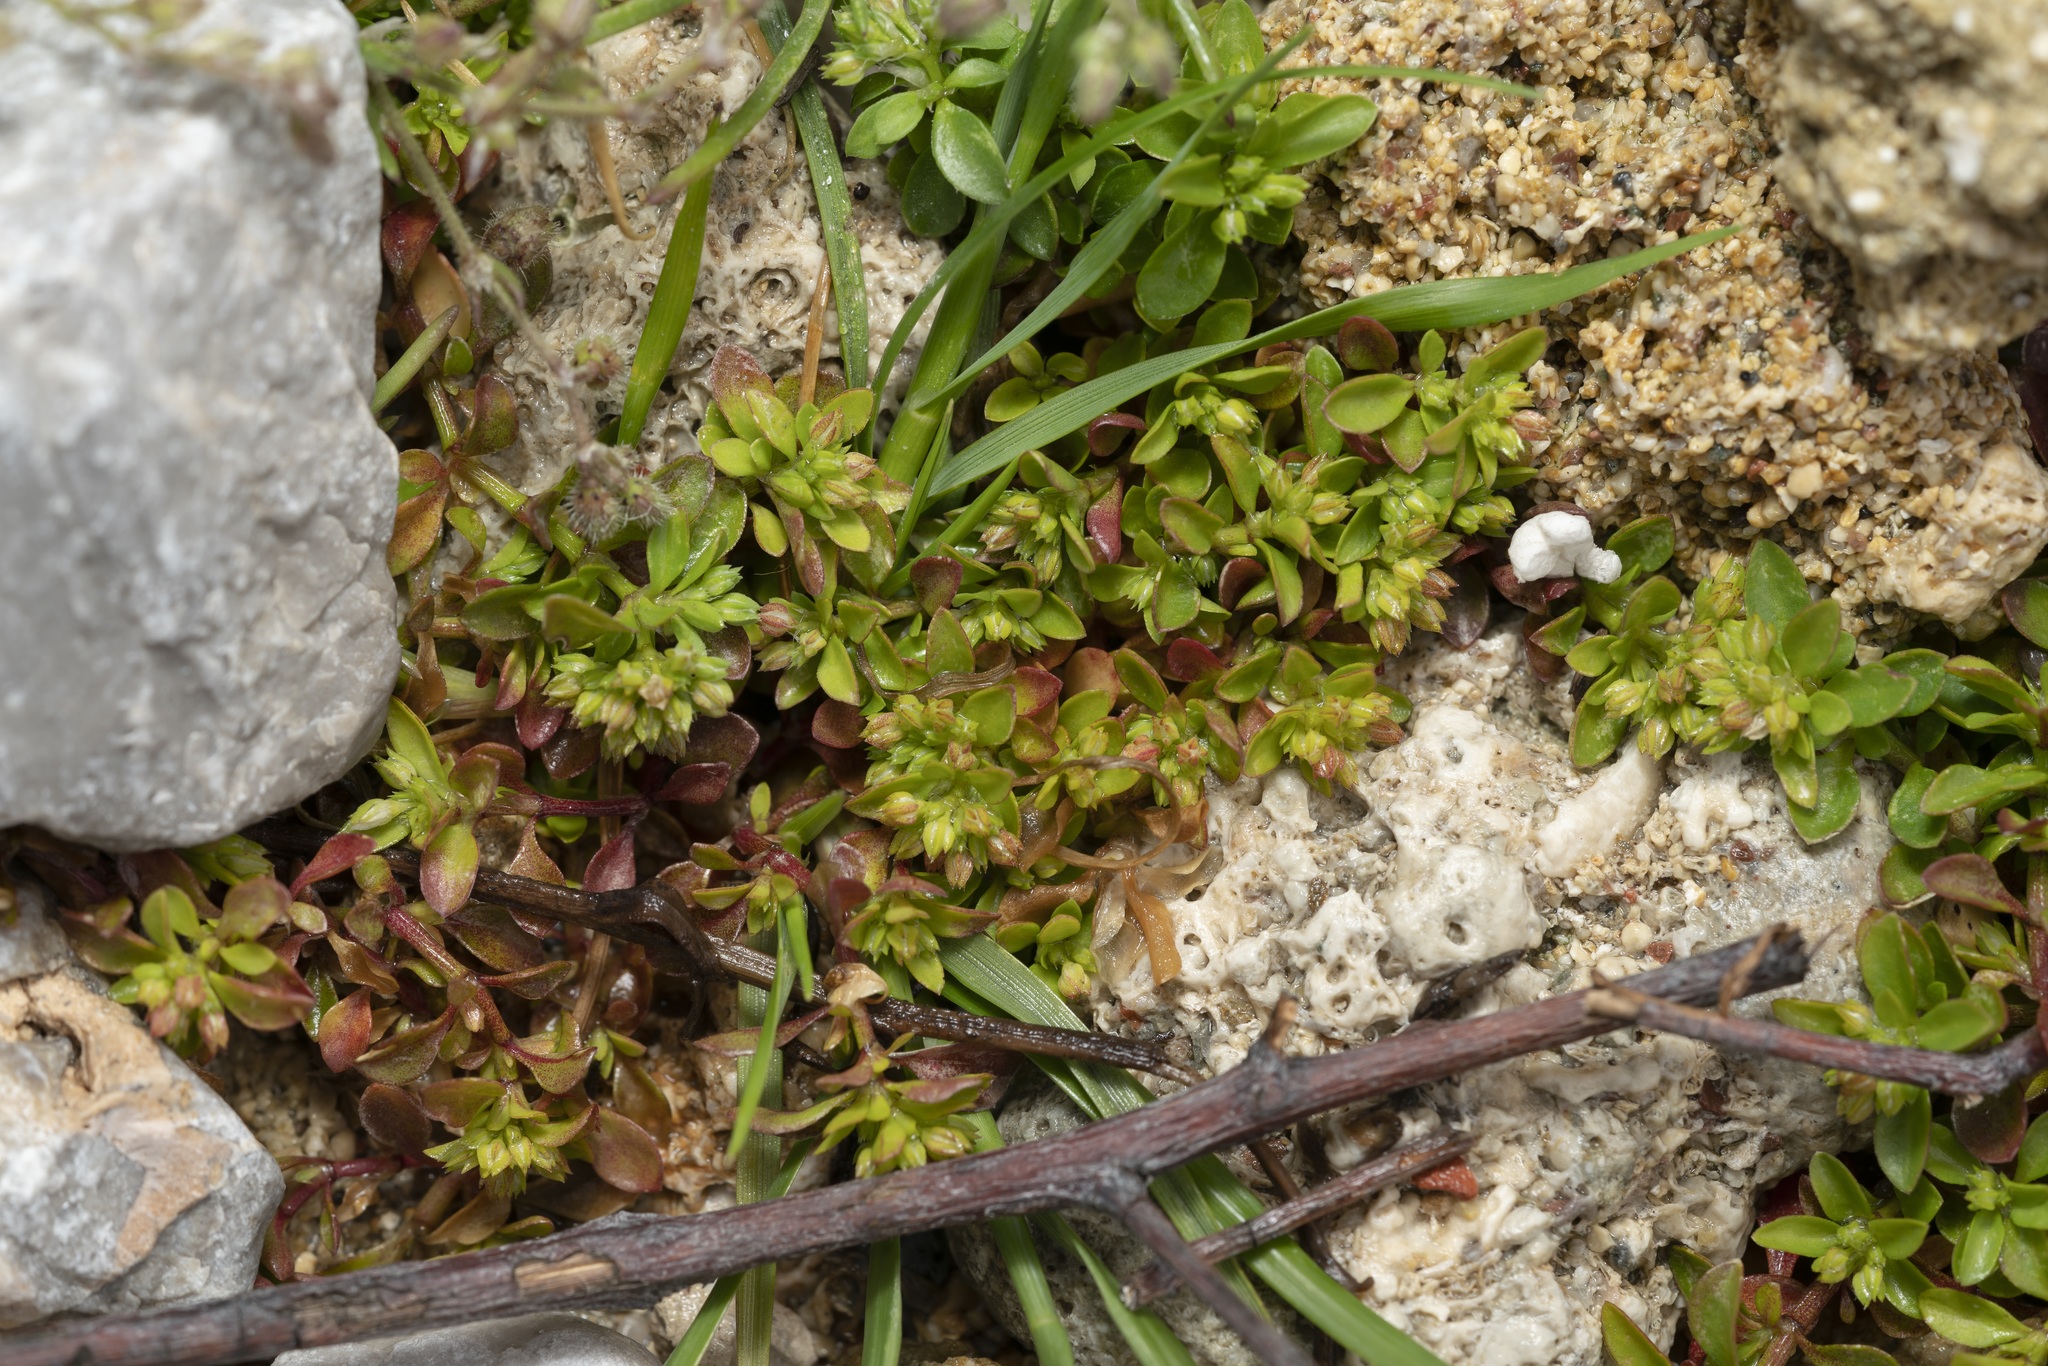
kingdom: Plantae
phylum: Tracheophyta
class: Magnoliopsida
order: Caryophyllales
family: Caryophyllaceae
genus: Polycarpon
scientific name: Polycarpon tetraphyllum
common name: Four-leaved all-seed
